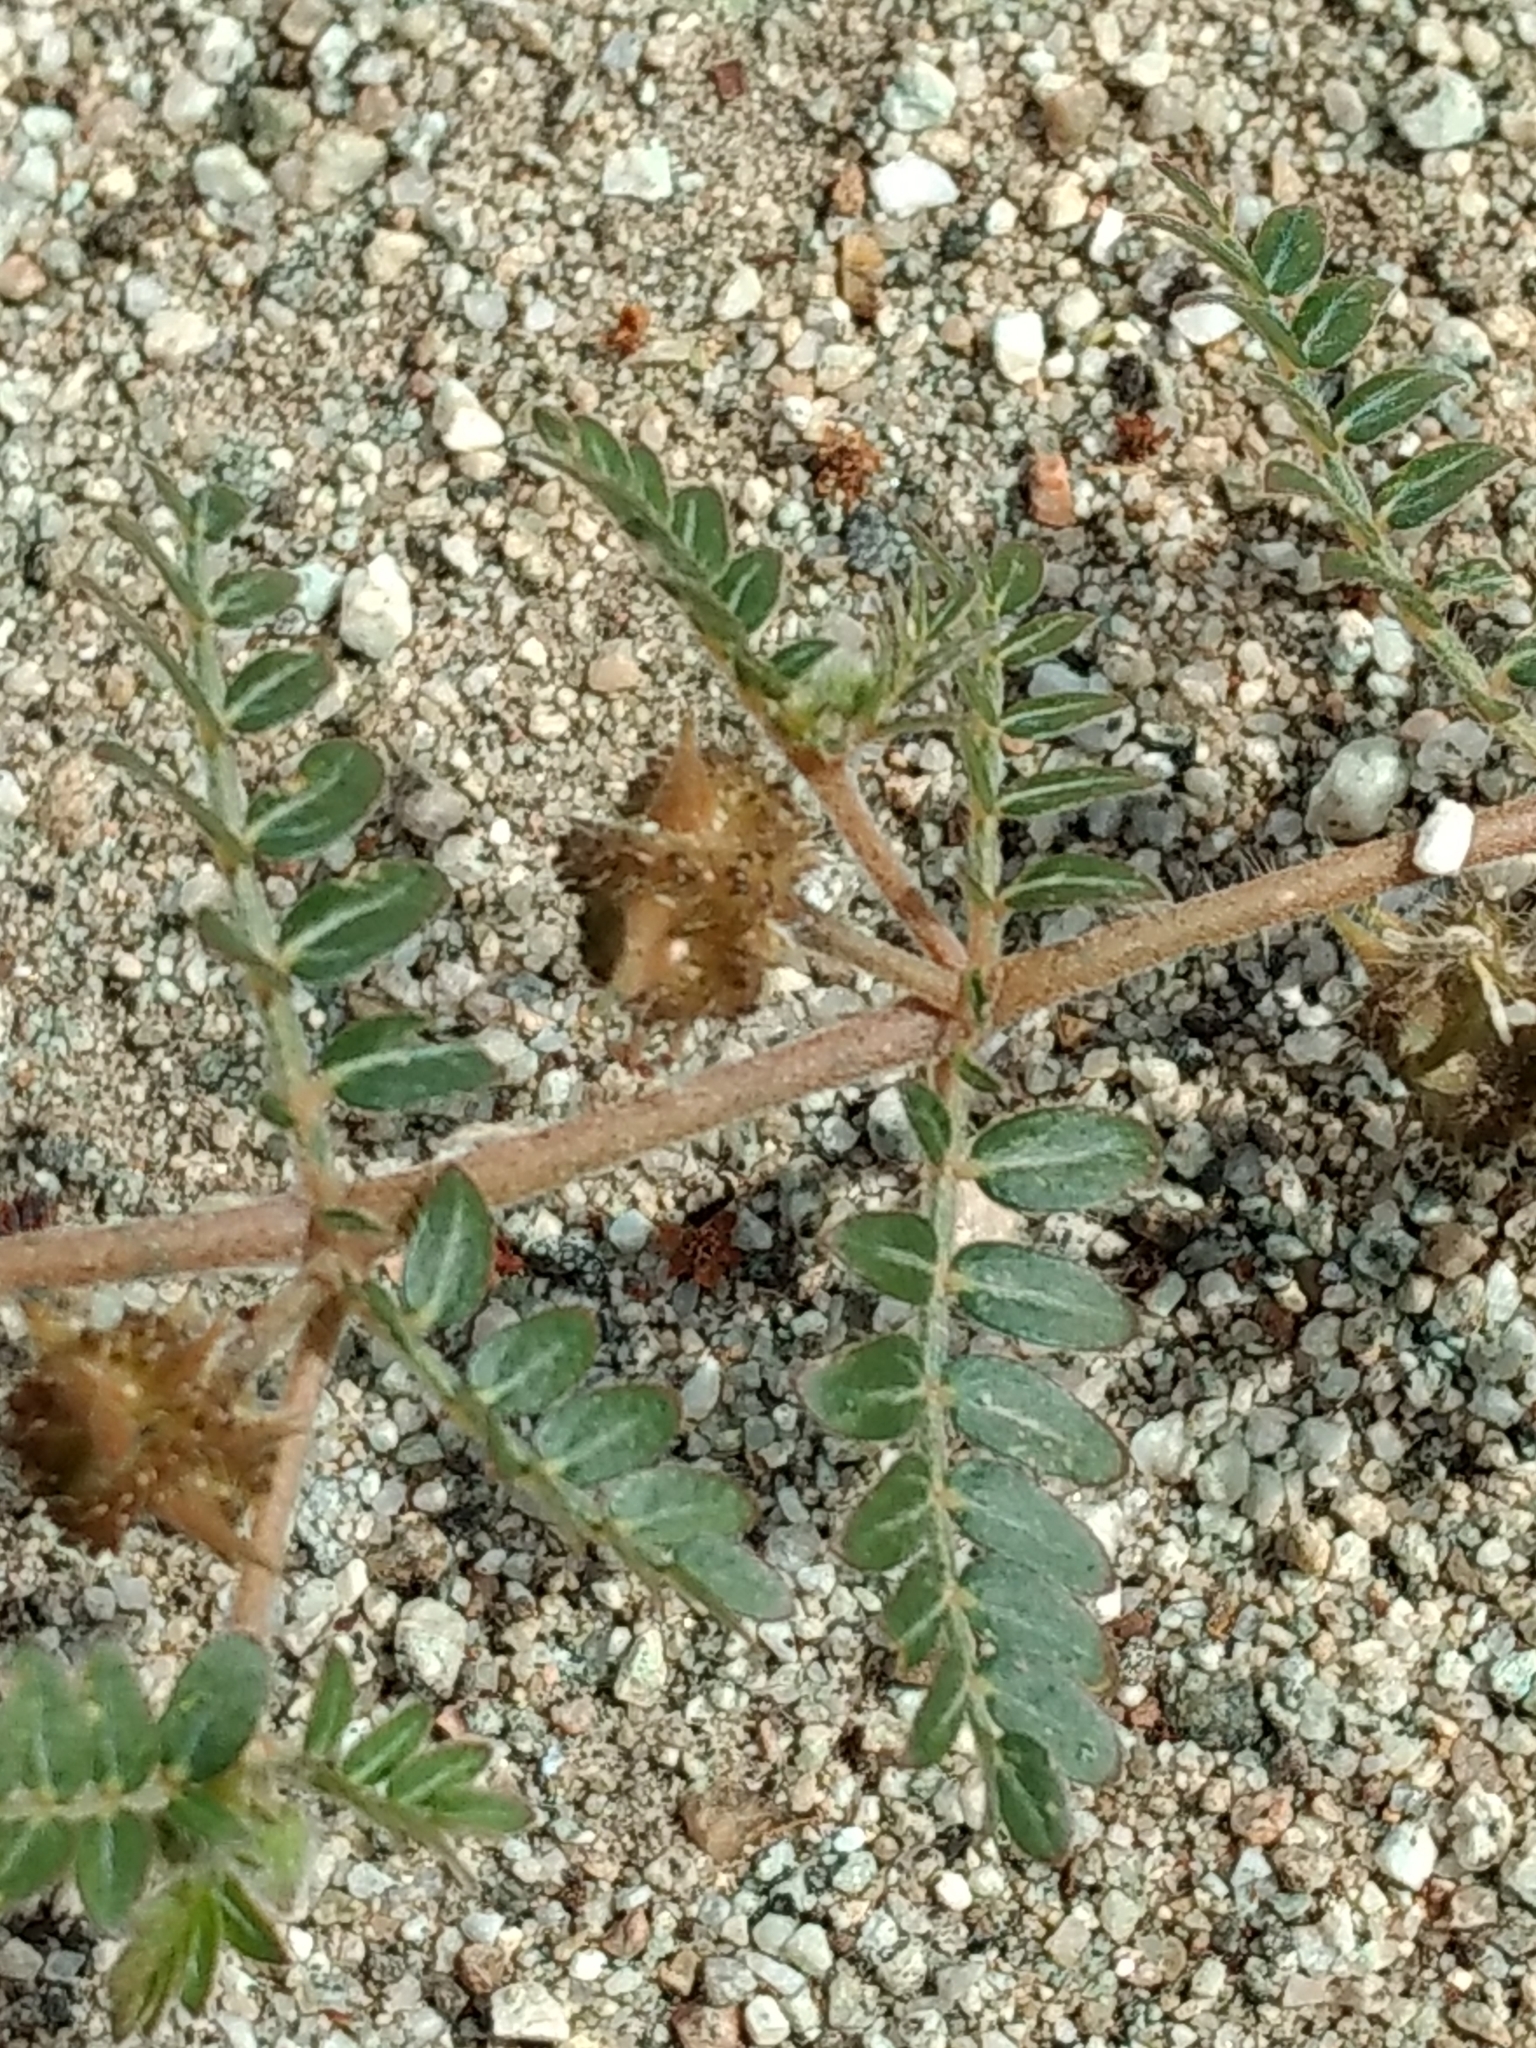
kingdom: Plantae
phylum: Tracheophyta
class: Magnoliopsida
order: Zygophyllales
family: Zygophyllaceae
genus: Tribulus
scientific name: Tribulus terrestris
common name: Puncturevine
